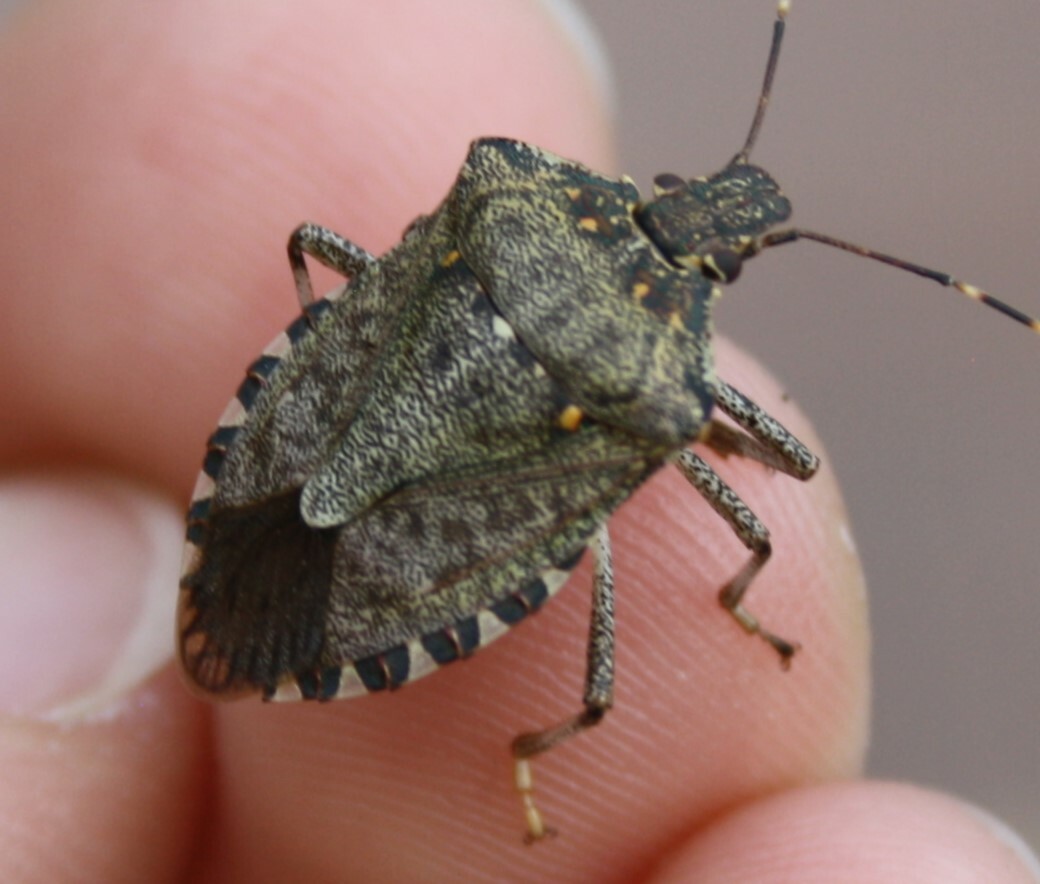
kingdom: Animalia
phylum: Arthropoda
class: Insecta
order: Hemiptera
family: Pentatomidae
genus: Halyomorpha
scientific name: Halyomorpha halys
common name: Brown marmorated stink bug
